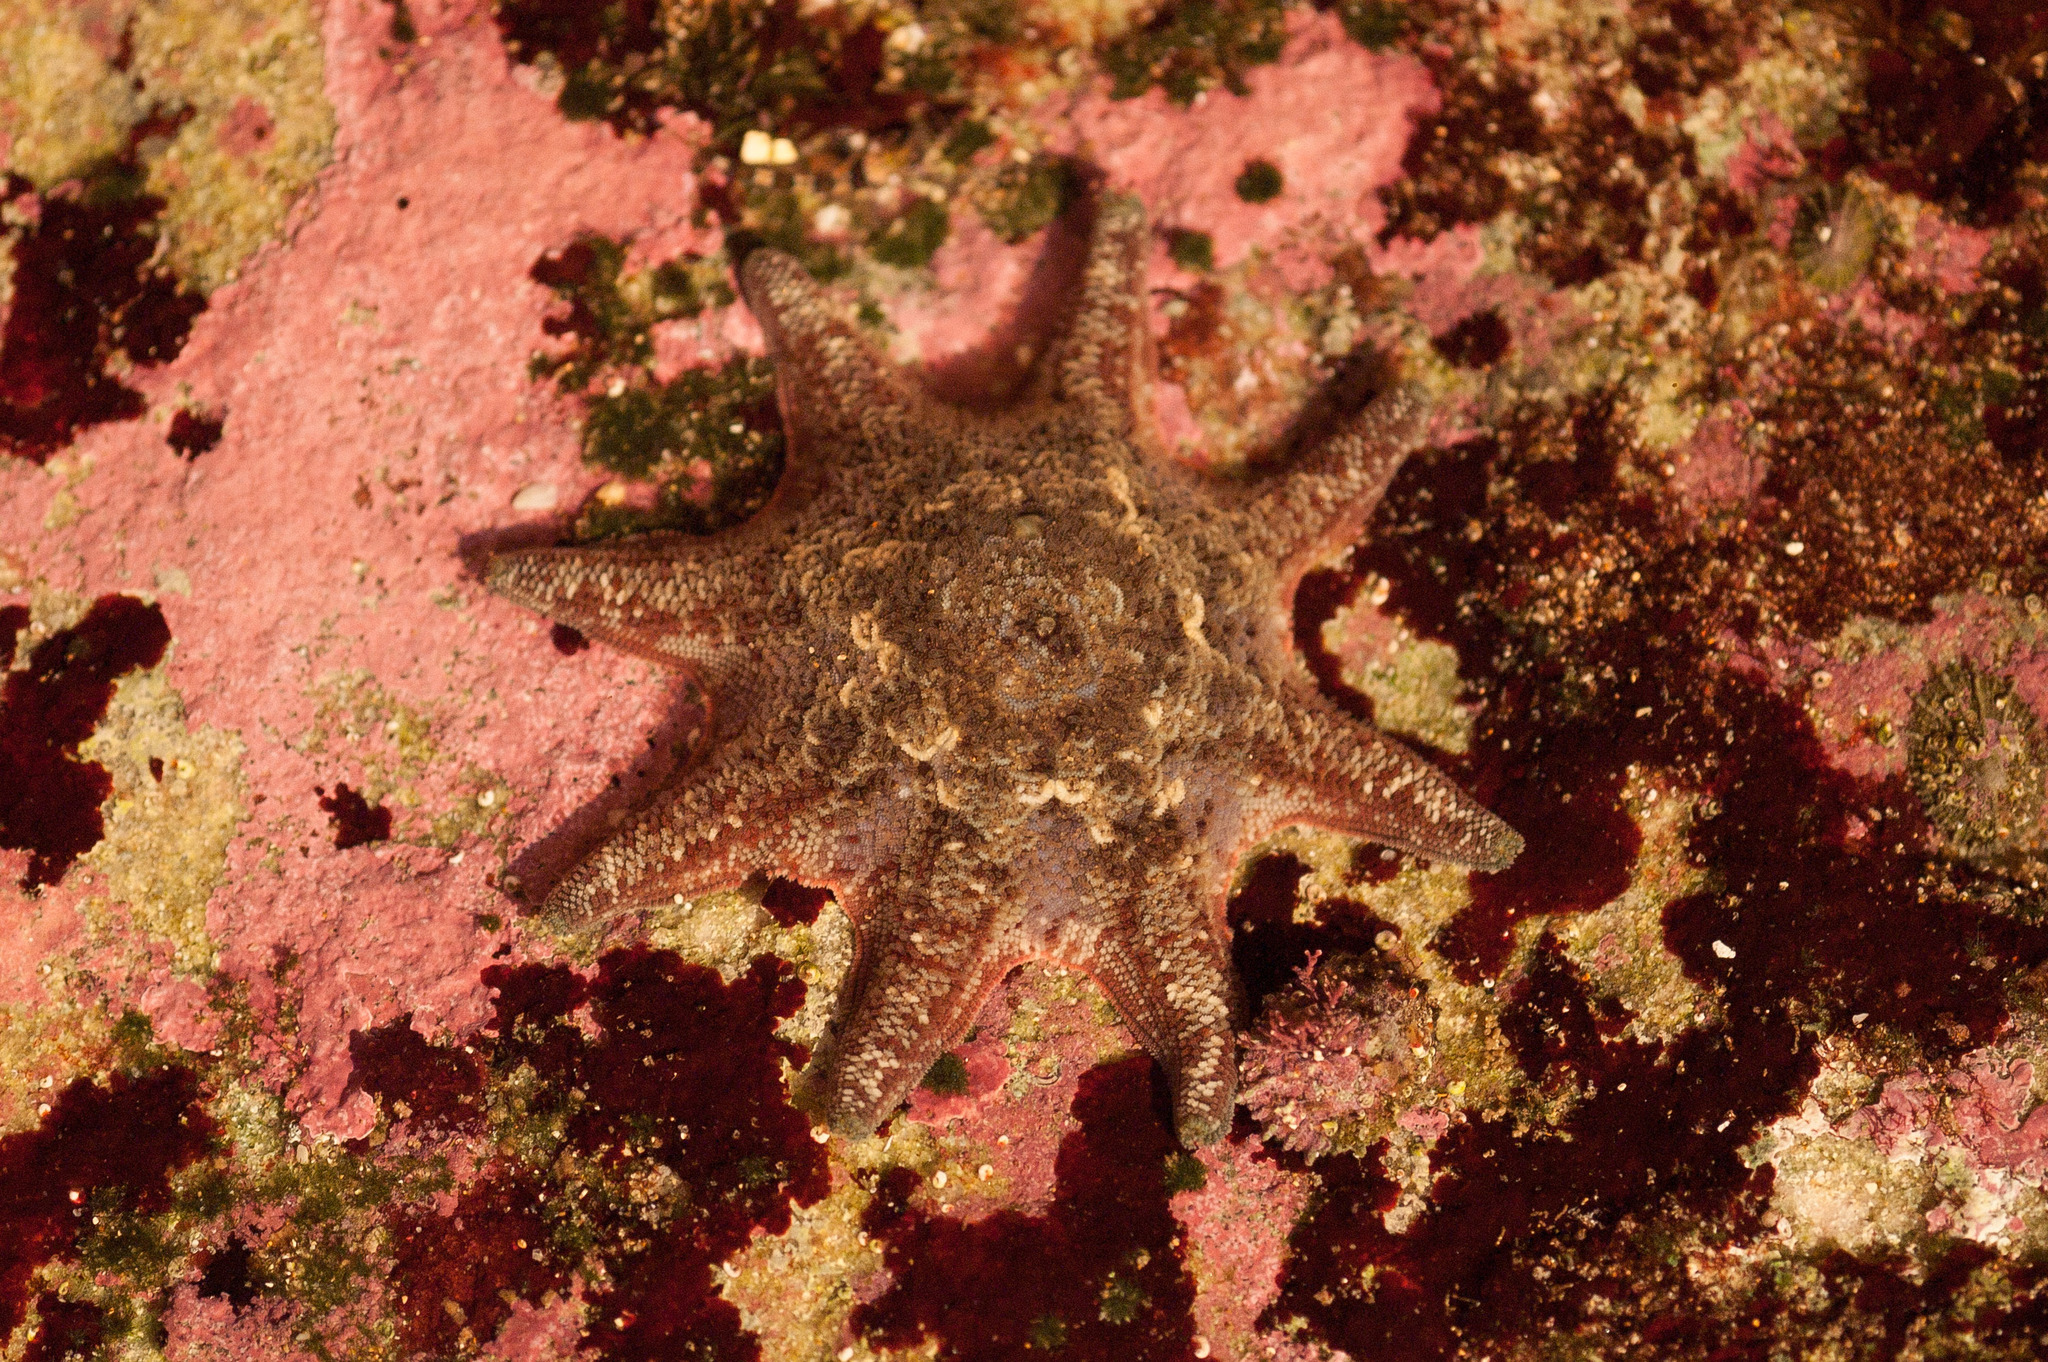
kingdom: Animalia
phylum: Echinodermata
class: Asteroidea
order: Valvatida
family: Asterinidae
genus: Meridiastra
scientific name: Meridiastra calcar
